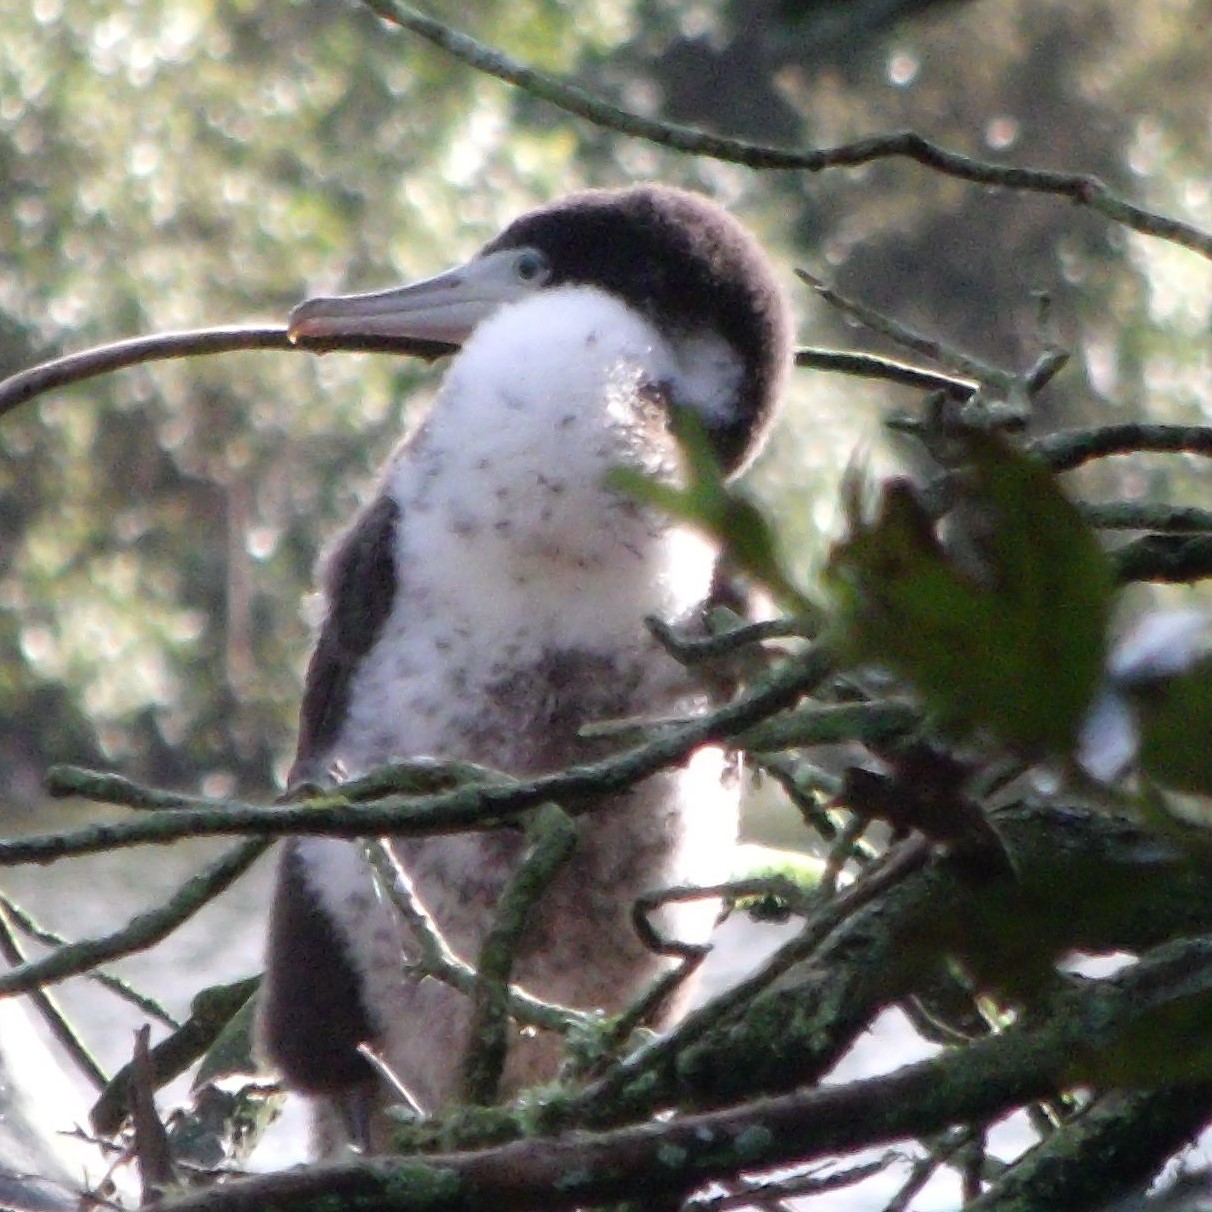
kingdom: Animalia
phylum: Chordata
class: Aves
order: Suliformes
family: Phalacrocoracidae
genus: Phalacrocorax
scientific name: Phalacrocorax varius
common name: Pied cormorant
